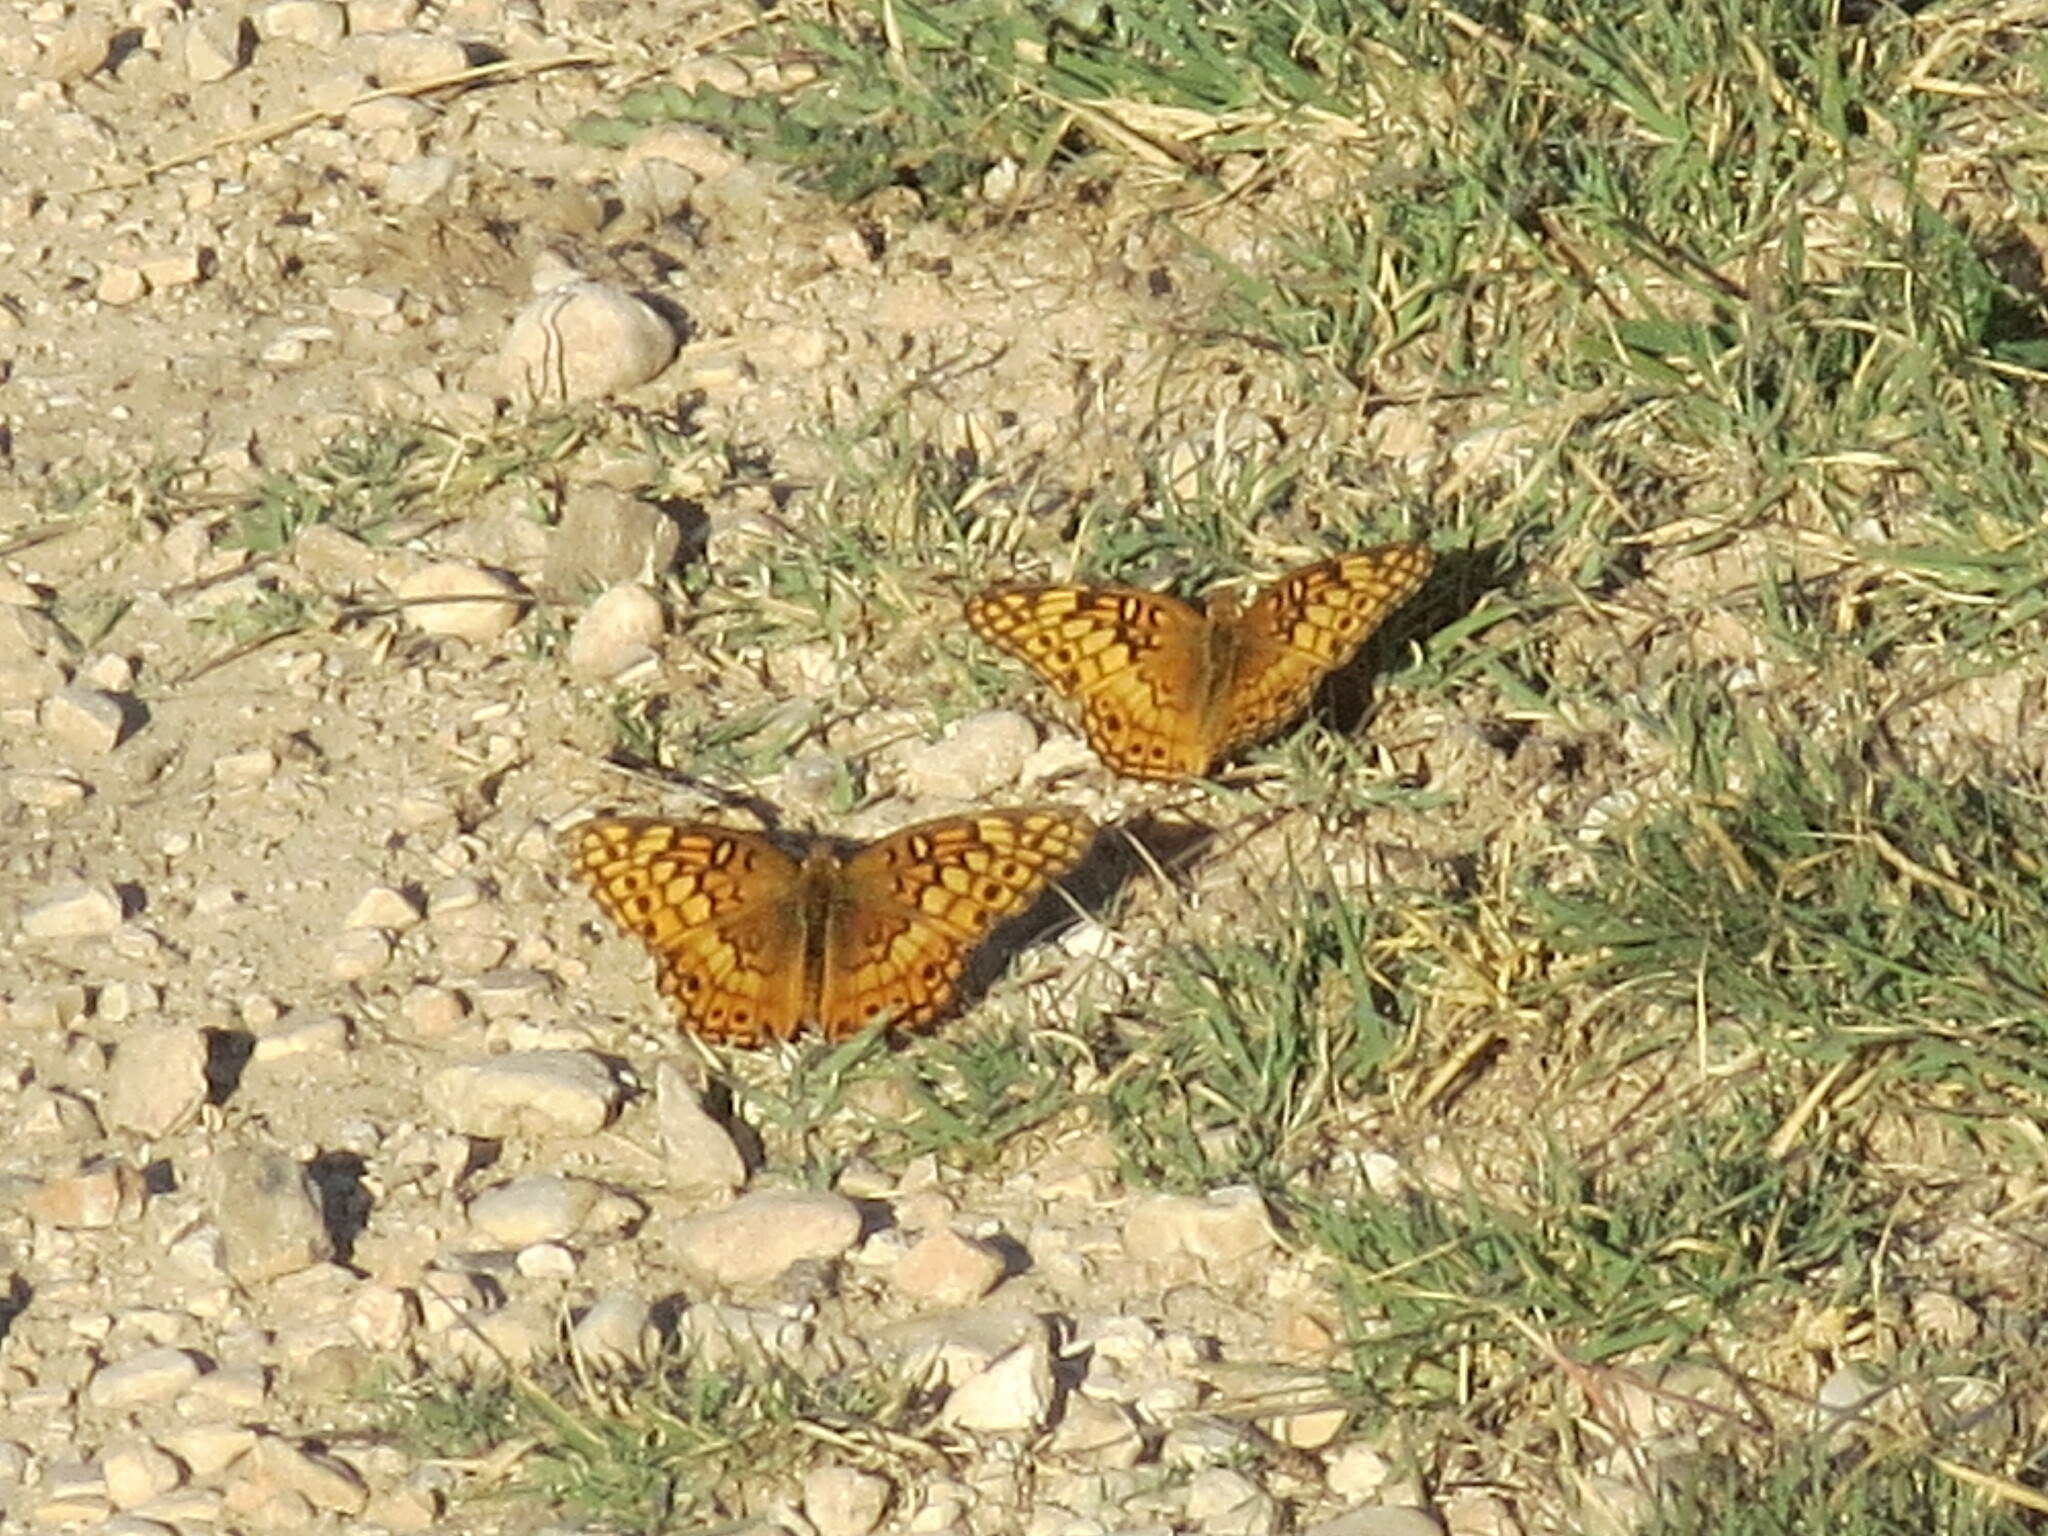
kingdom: Animalia
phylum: Arthropoda
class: Insecta
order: Lepidoptera
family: Nymphalidae
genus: Euptoieta
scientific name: Euptoieta claudia
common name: Variegated fritillary
